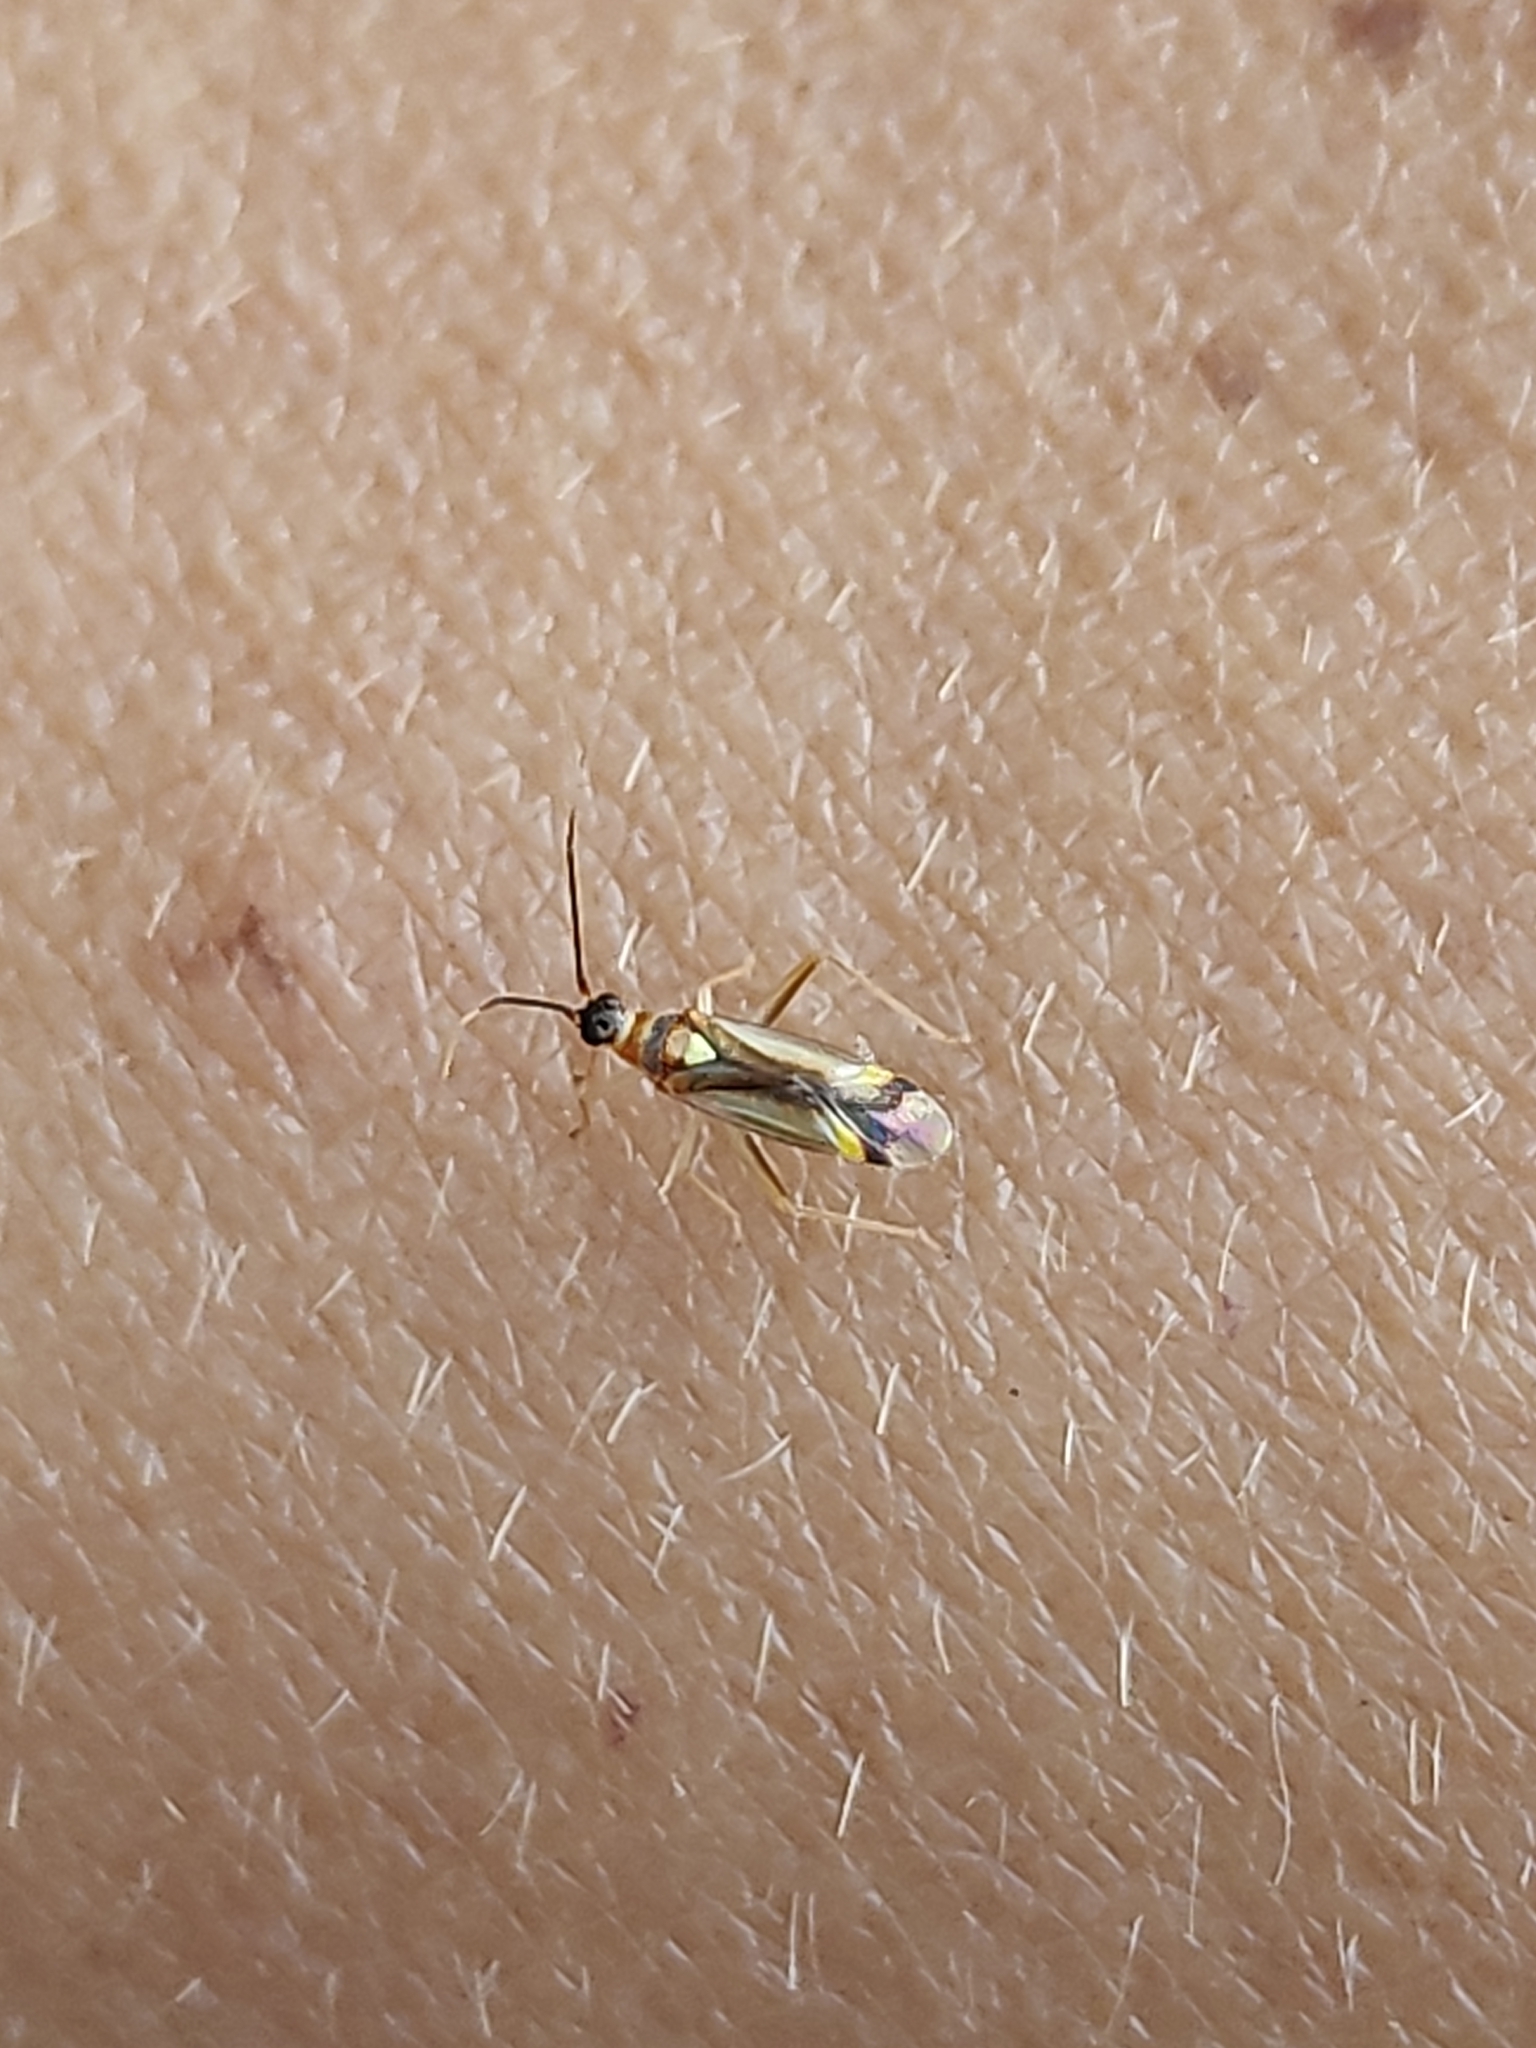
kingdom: Animalia
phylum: Arthropoda
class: Insecta
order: Hemiptera
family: Miridae
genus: Campyloneura
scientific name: Campyloneura virgula
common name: Predatory bug
